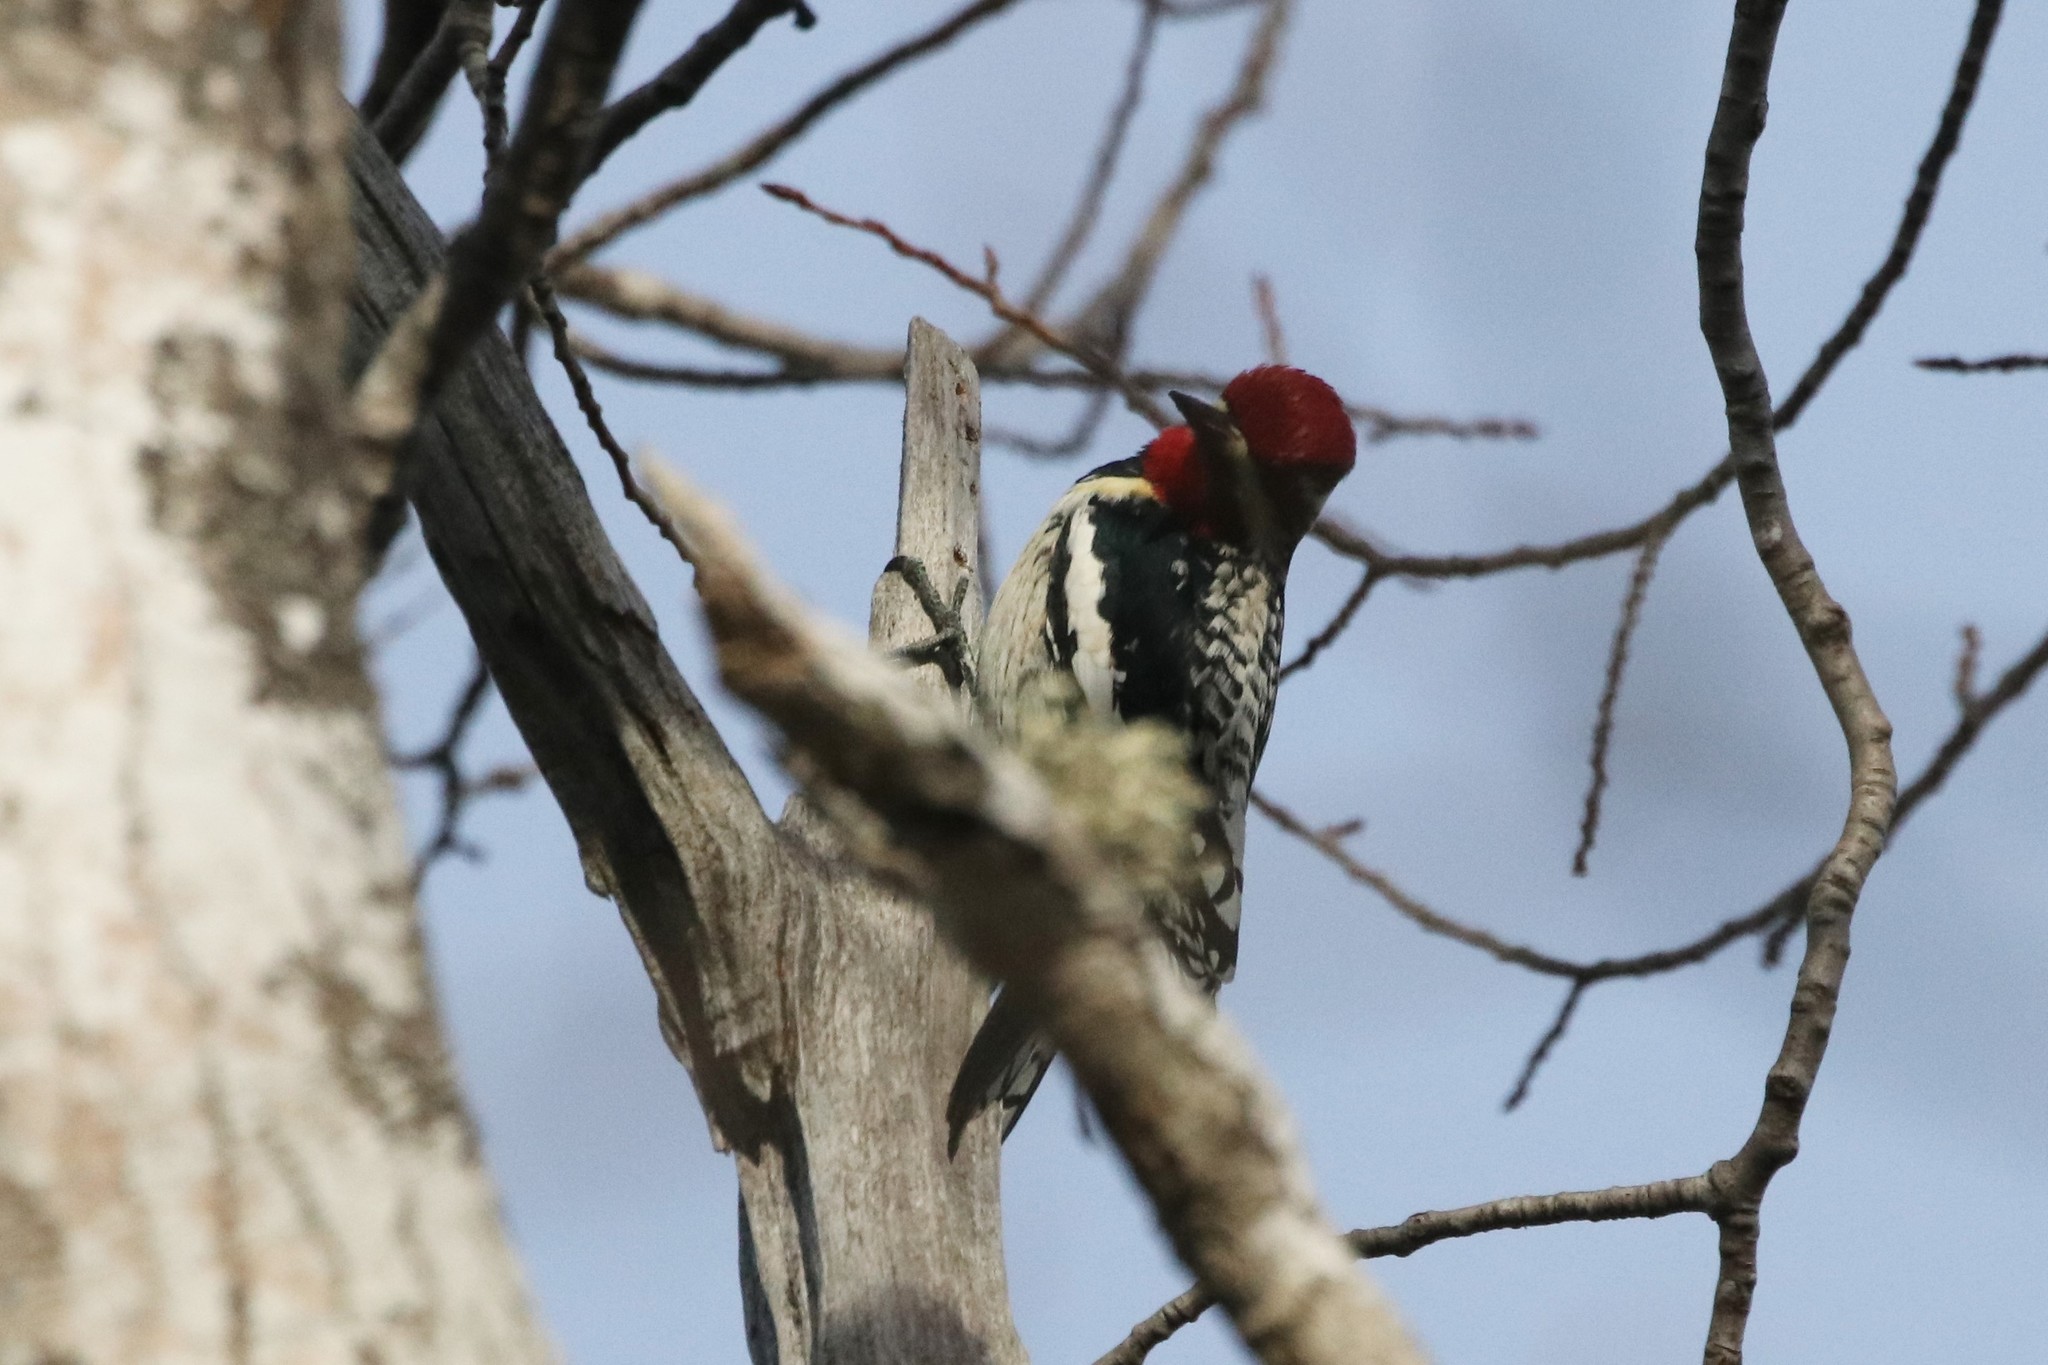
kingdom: Animalia
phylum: Chordata
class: Aves
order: Piciformes
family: Picidae
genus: Sphyrapicus
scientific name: Sphyrapicus varius
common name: Yellow-bellied sapsucker
